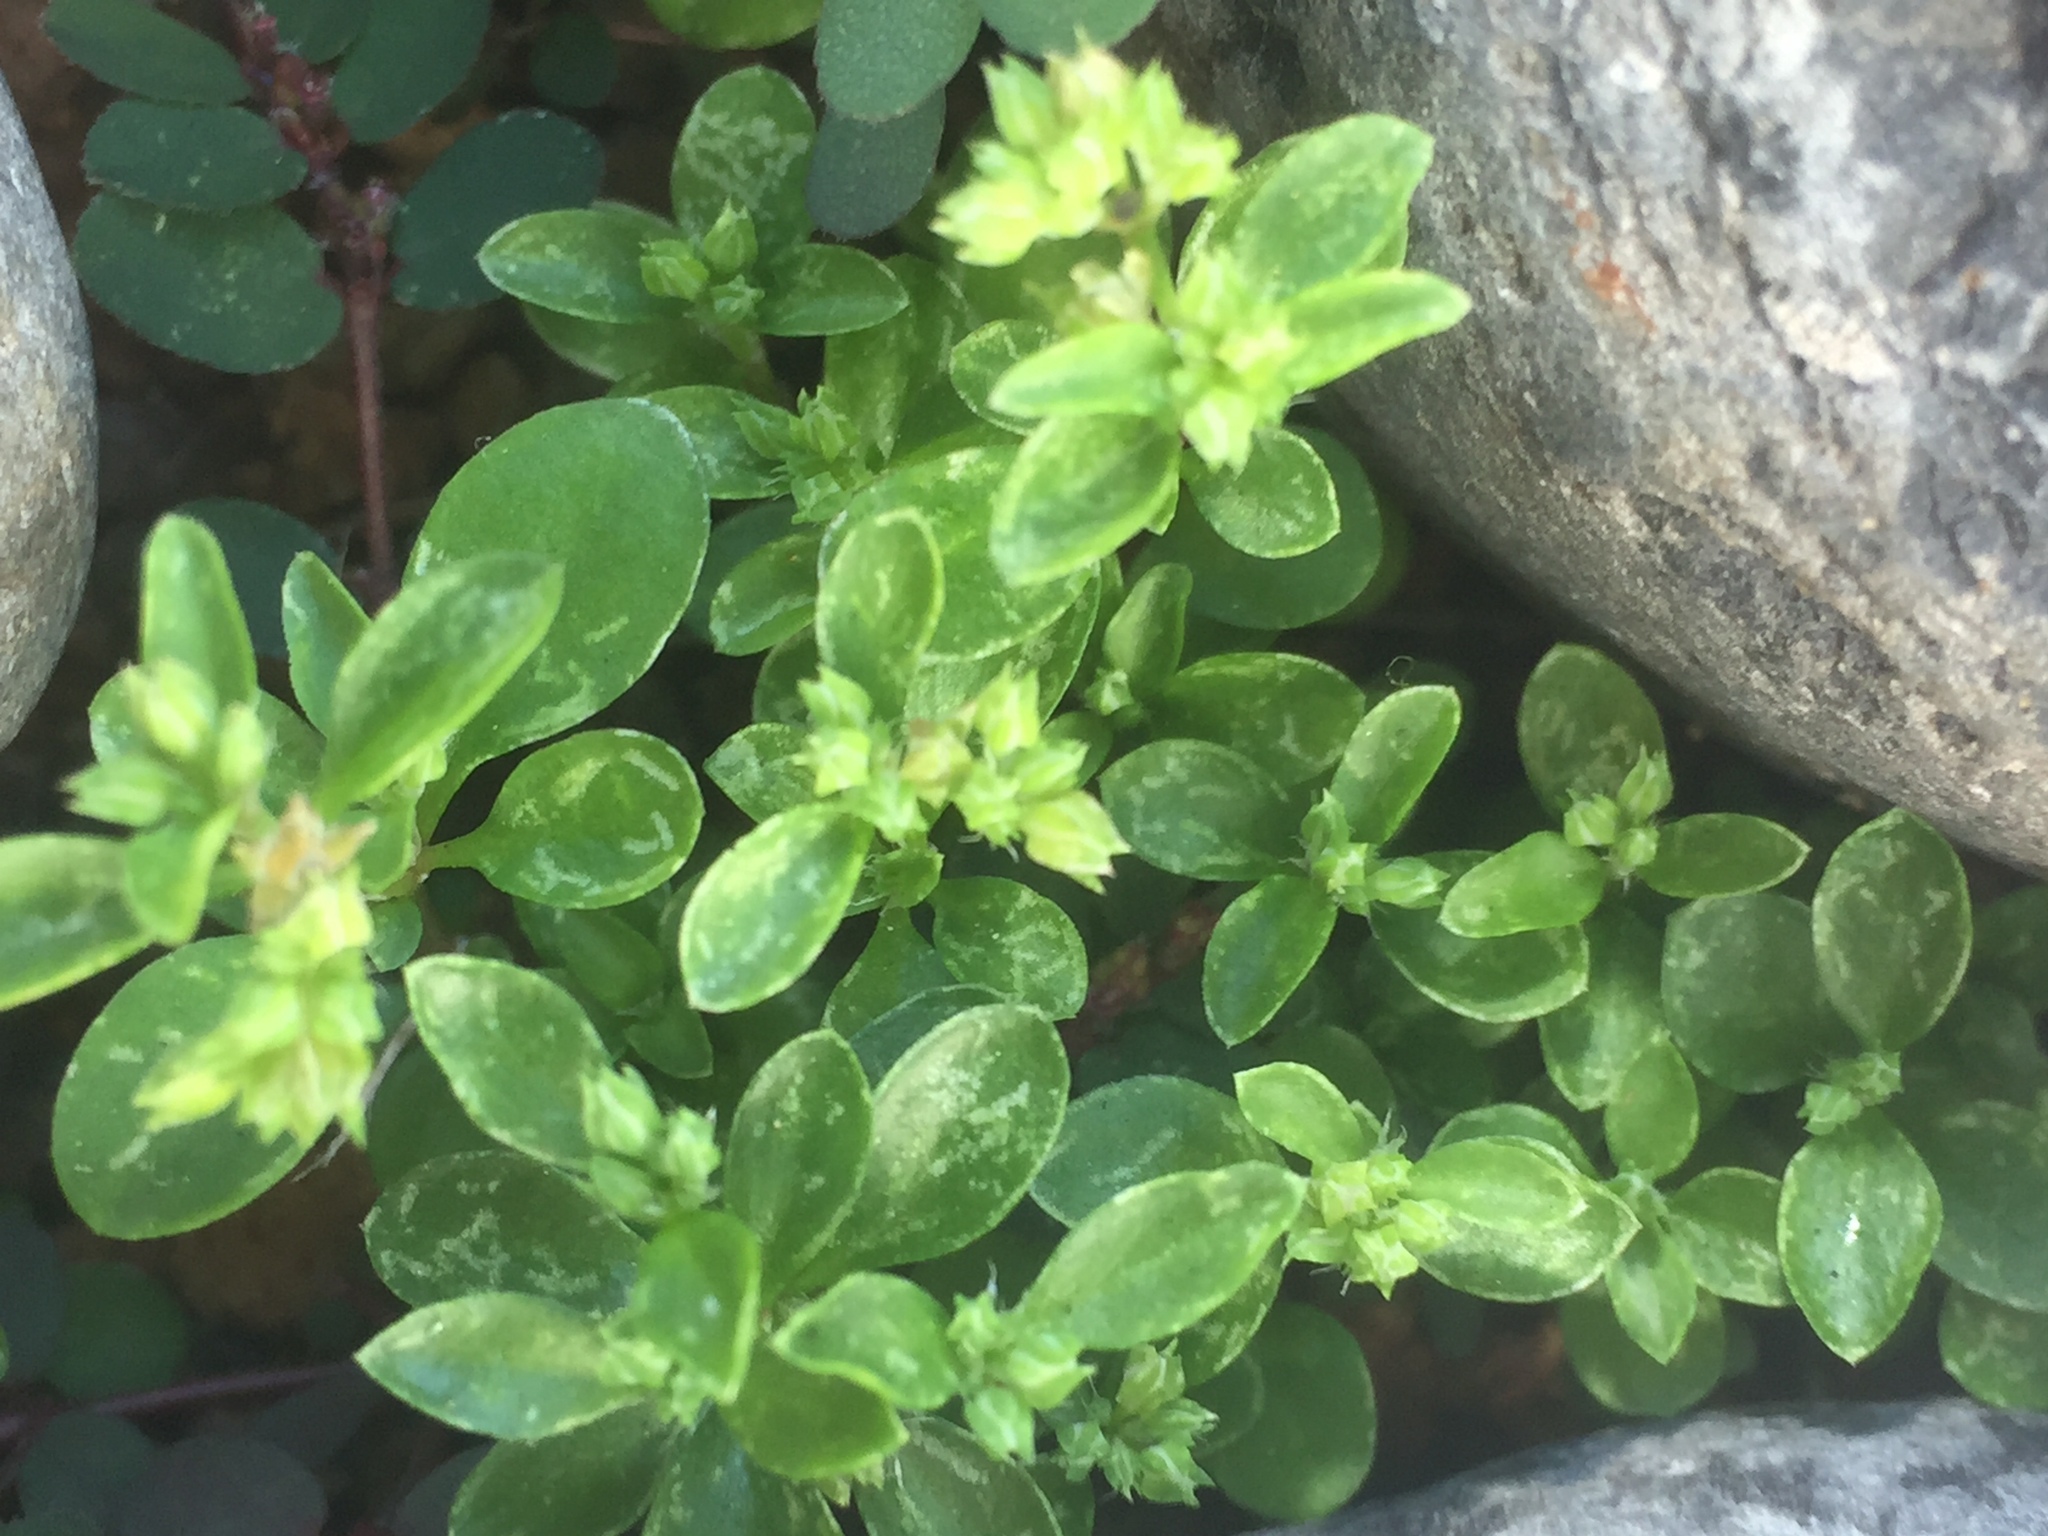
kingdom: Plantae
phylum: Tracheophyta
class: Magnoliopsida
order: Caryophyllales
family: Caryophyllaceae
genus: Polycarpon
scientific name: Polycarpon tetraphyllum
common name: Four-leaved all-seed
